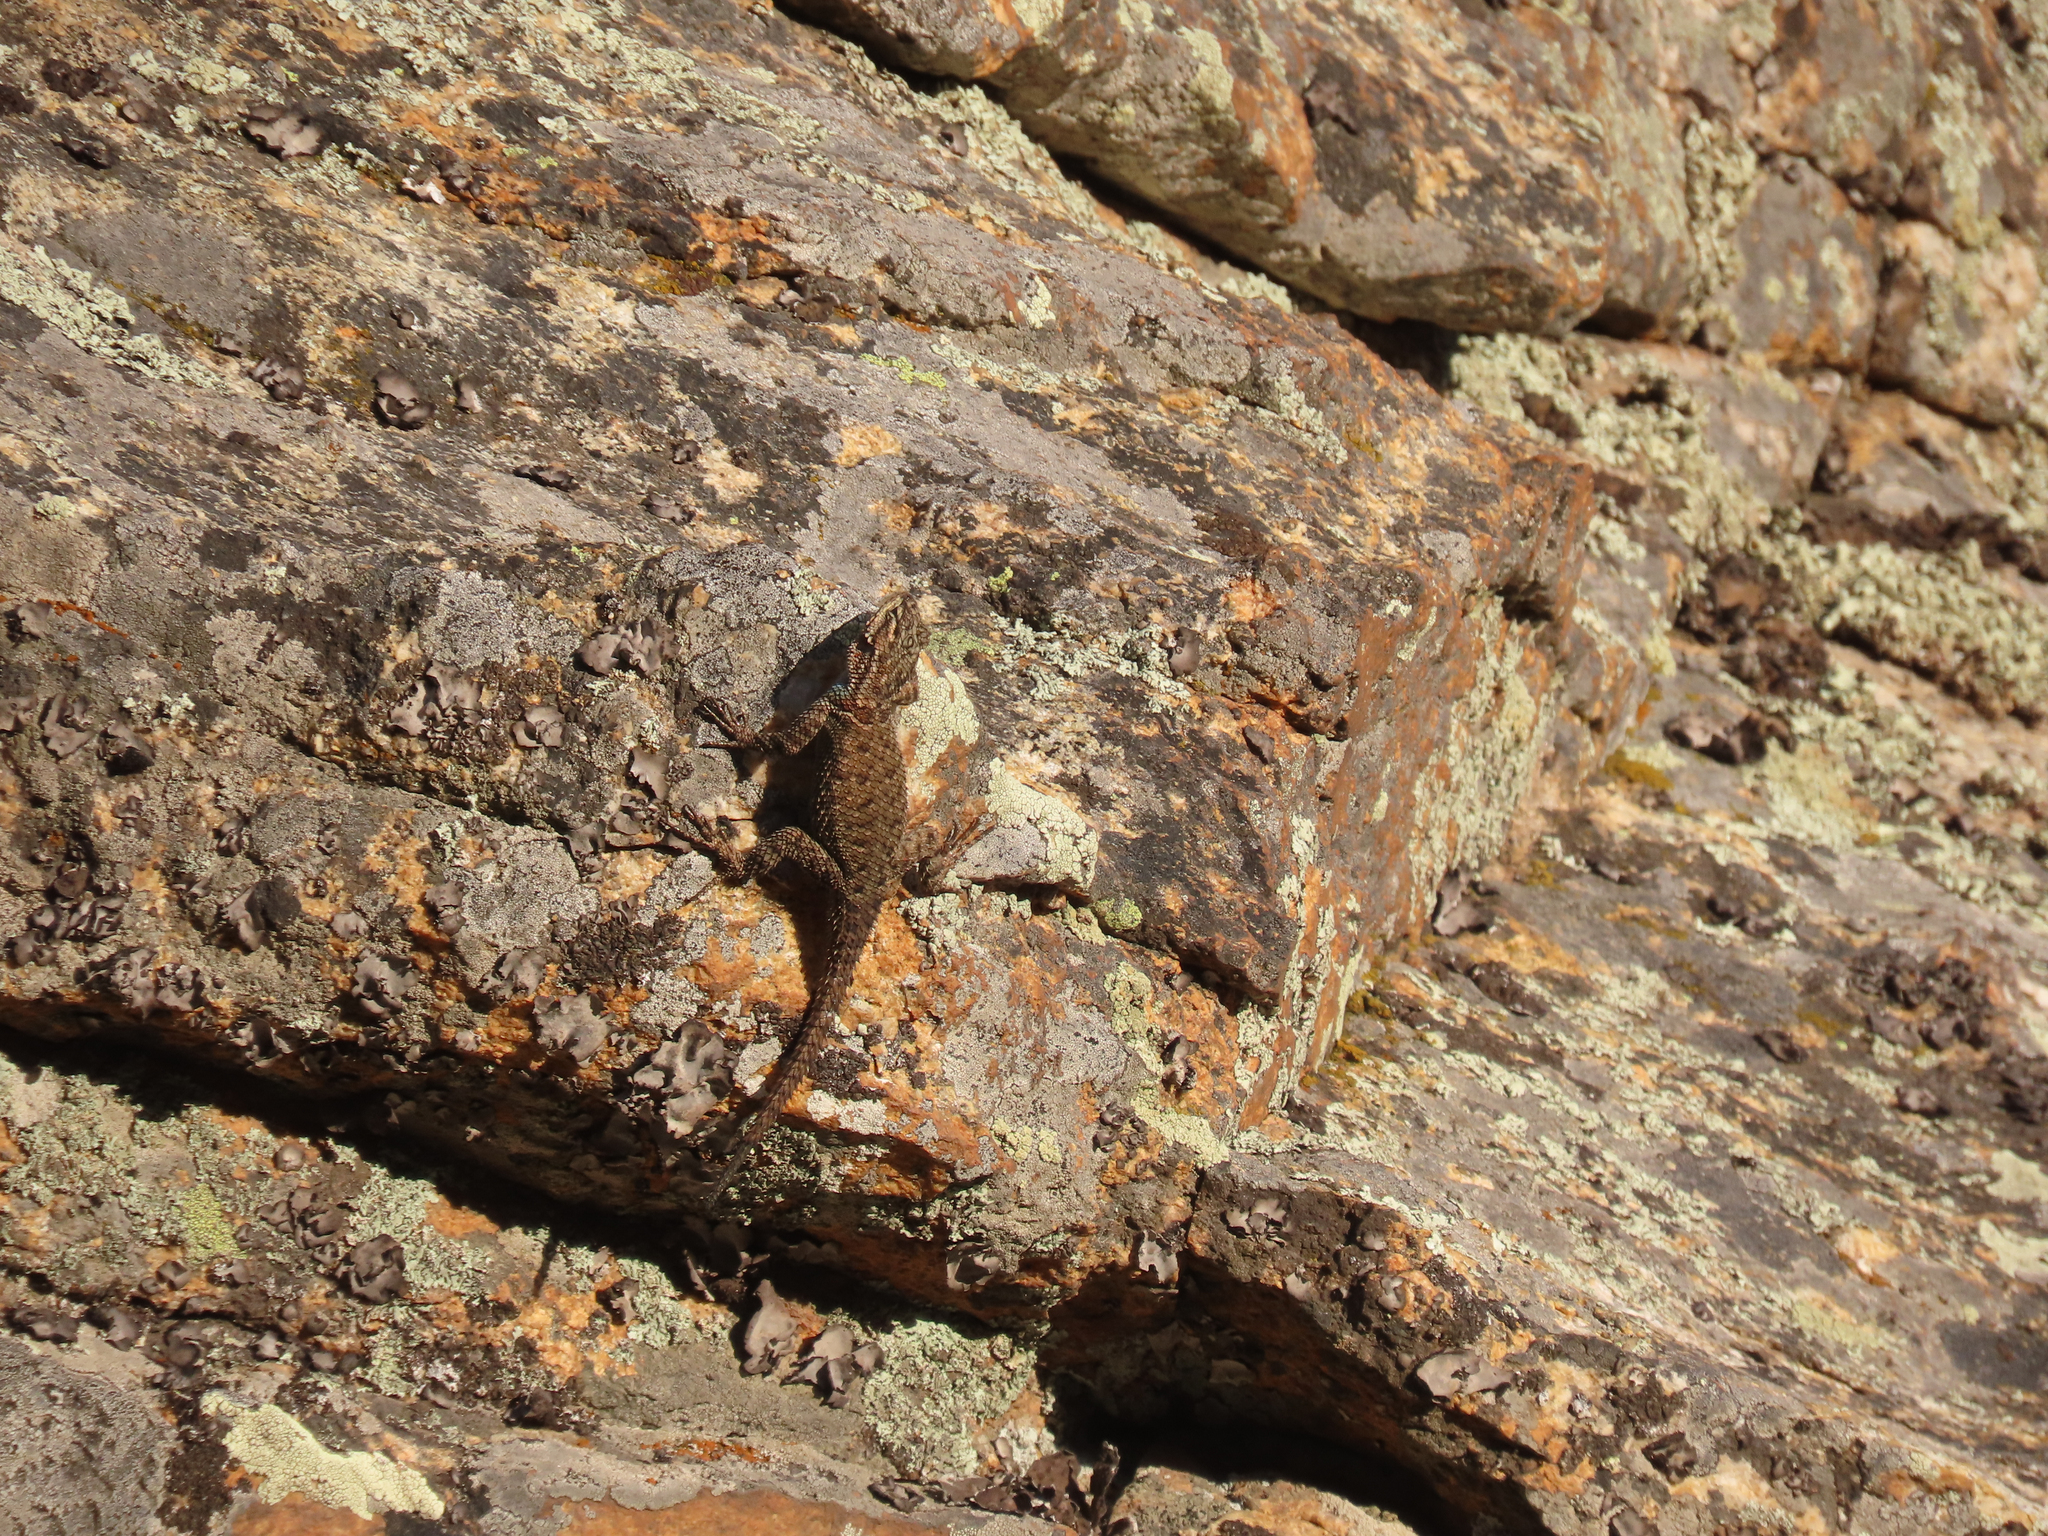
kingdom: Animalia
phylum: Chordata
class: Squamata
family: Phrynosomatidae
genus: Sceloporus
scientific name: Sceloporus jarrovii
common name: Yarrow's spiny lizard
